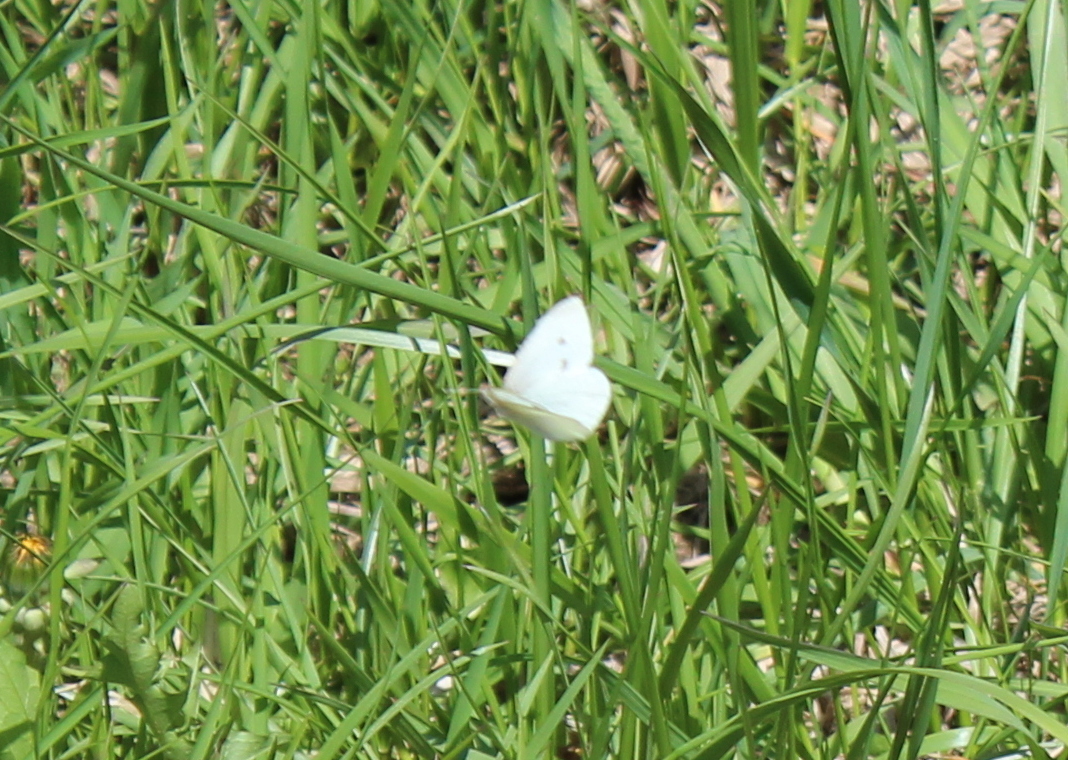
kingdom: Animalia
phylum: Arthropoda
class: Insecta
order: Lepidoptera
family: Pieridae
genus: Pieris
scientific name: Pieris rapae
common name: Small white
